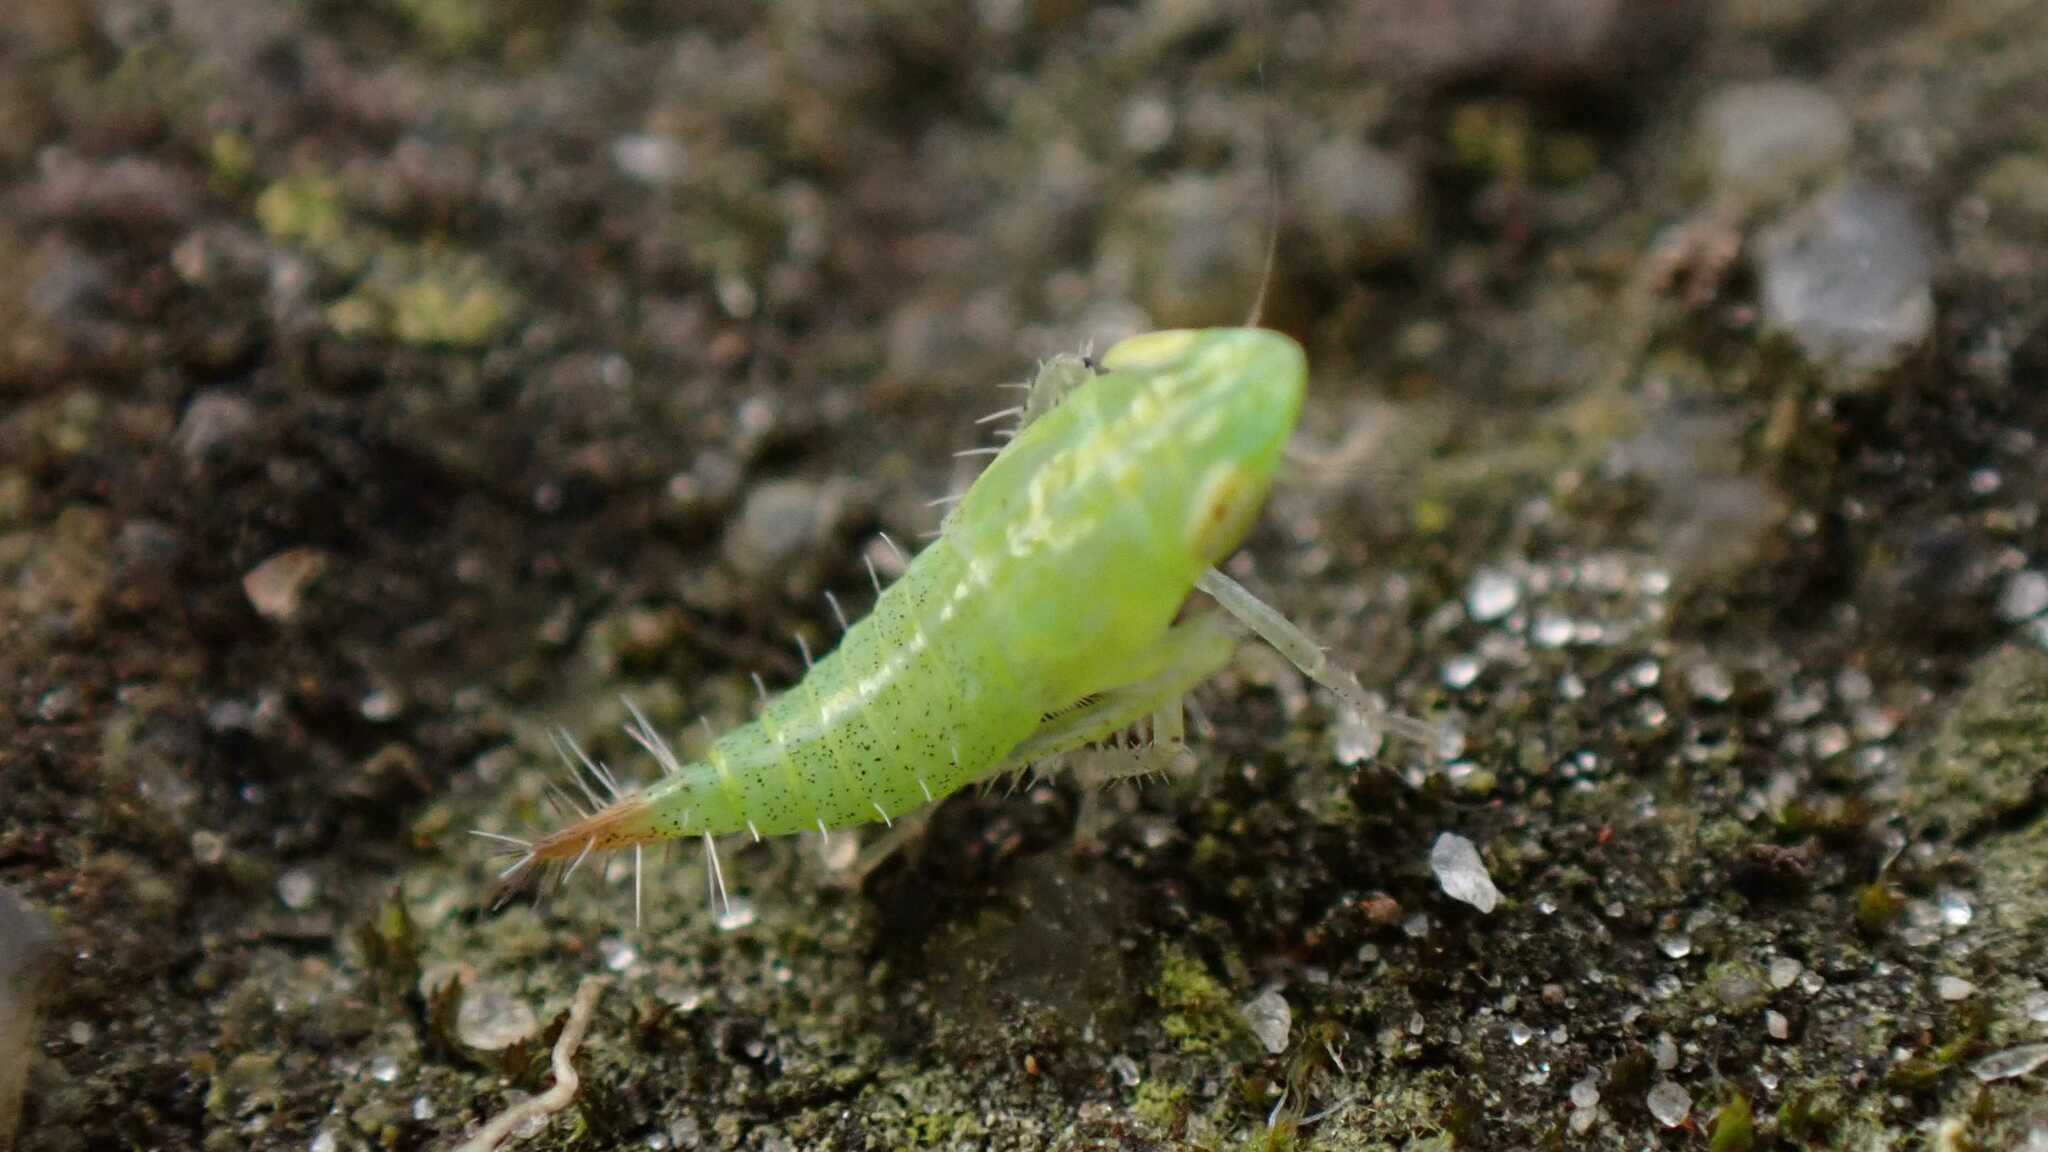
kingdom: Animalia
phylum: Arthropoda
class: Insecta
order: Hemiptera
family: Cicadellidae
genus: Fieberiella
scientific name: Fieberiella
